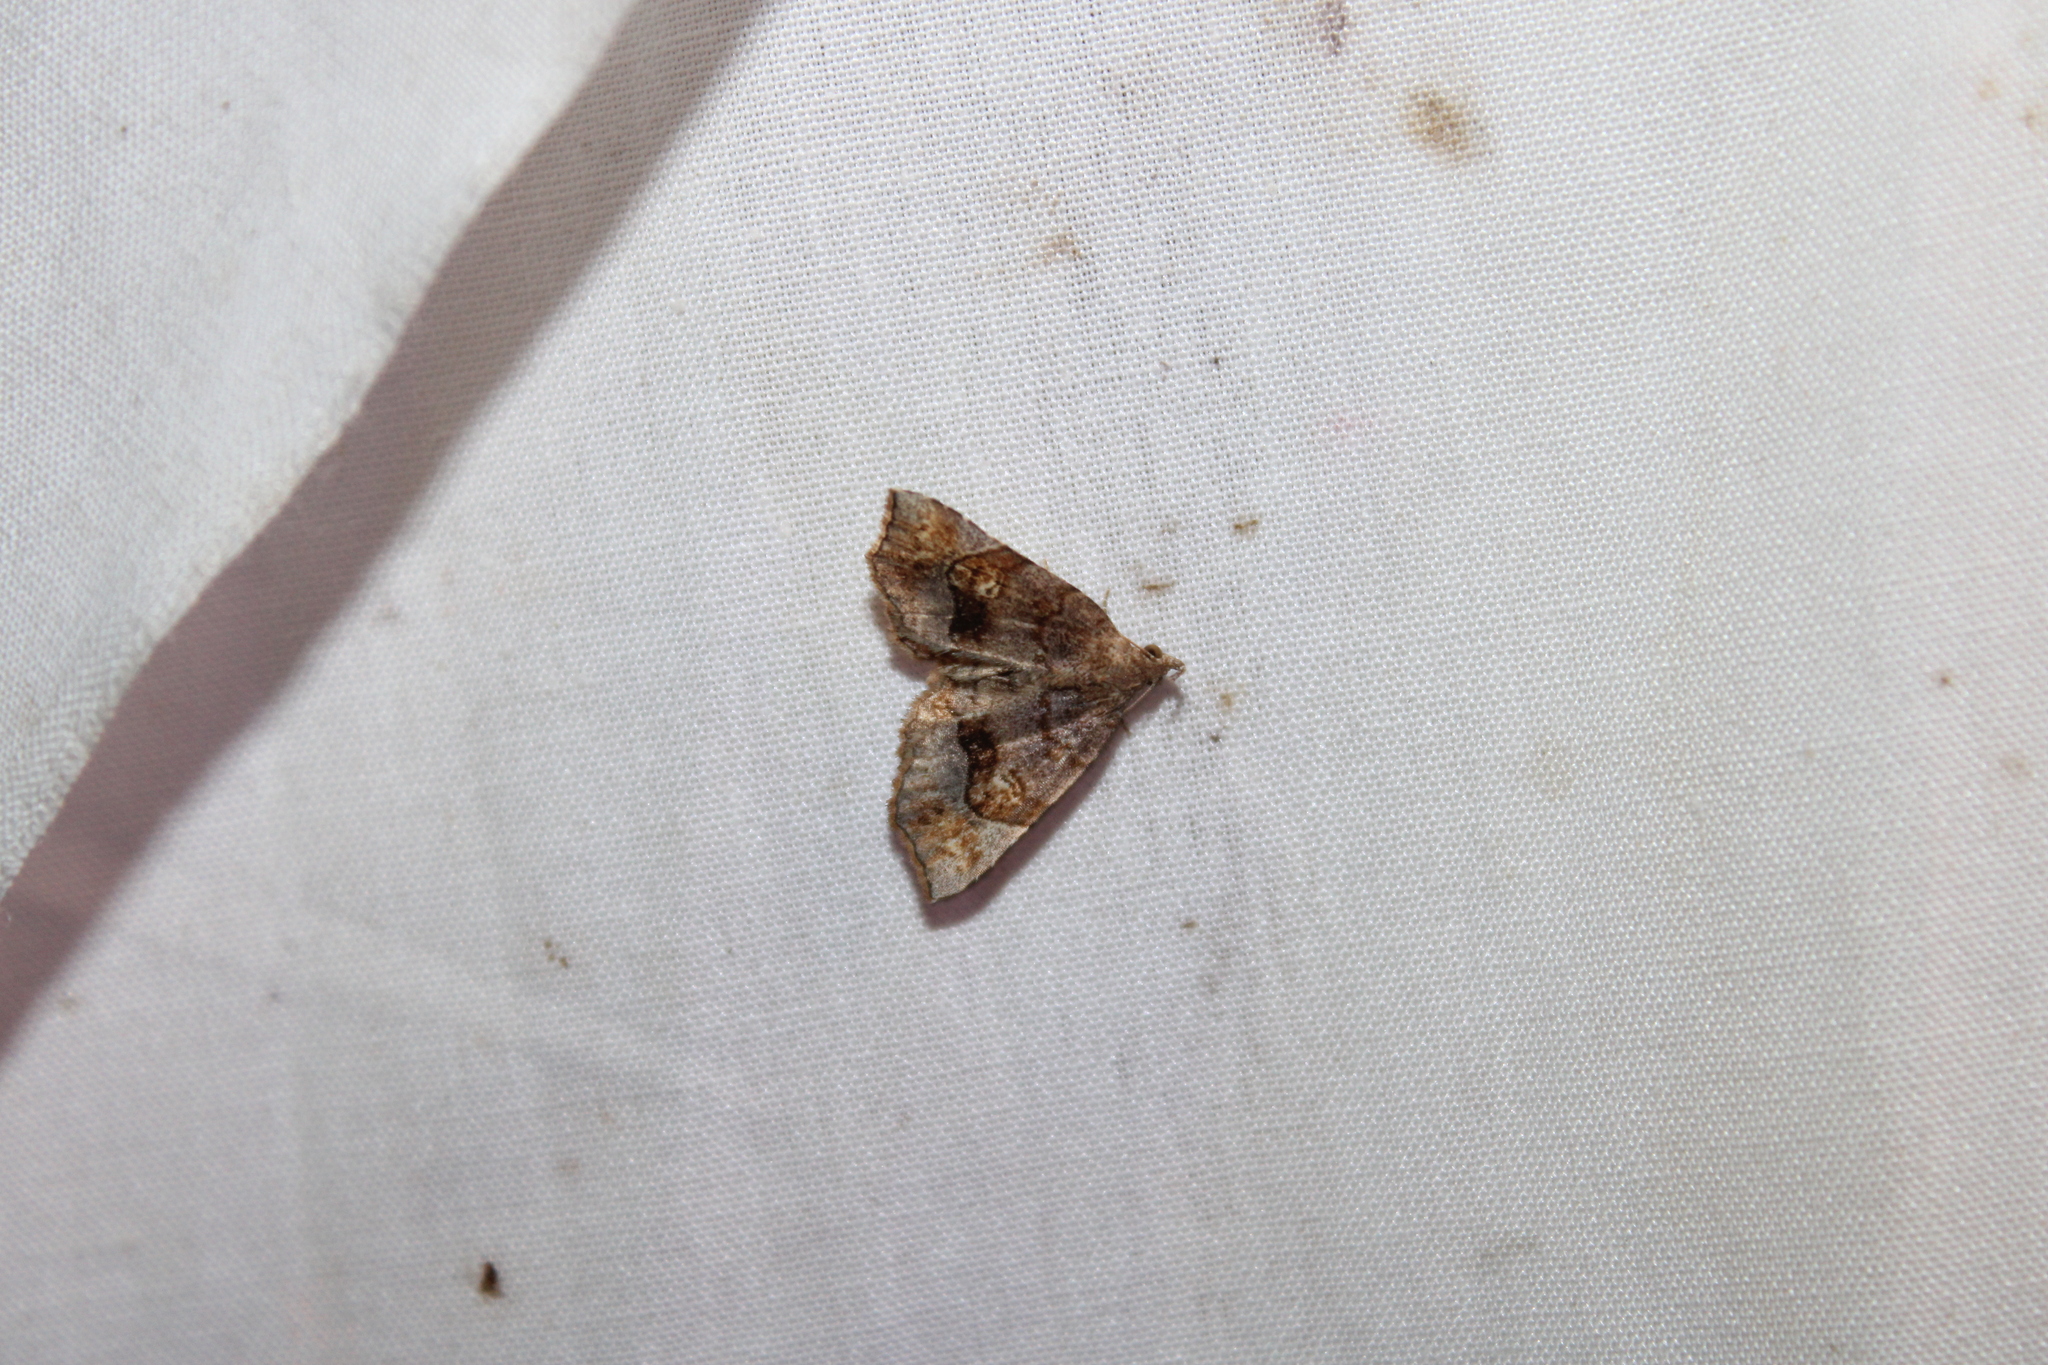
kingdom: Animalia
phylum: Arthropoda
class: Insecta
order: Lepidoptera
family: Erebidae
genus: Pangrapta
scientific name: Pangrapta decoralis
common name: Decorated owlet
